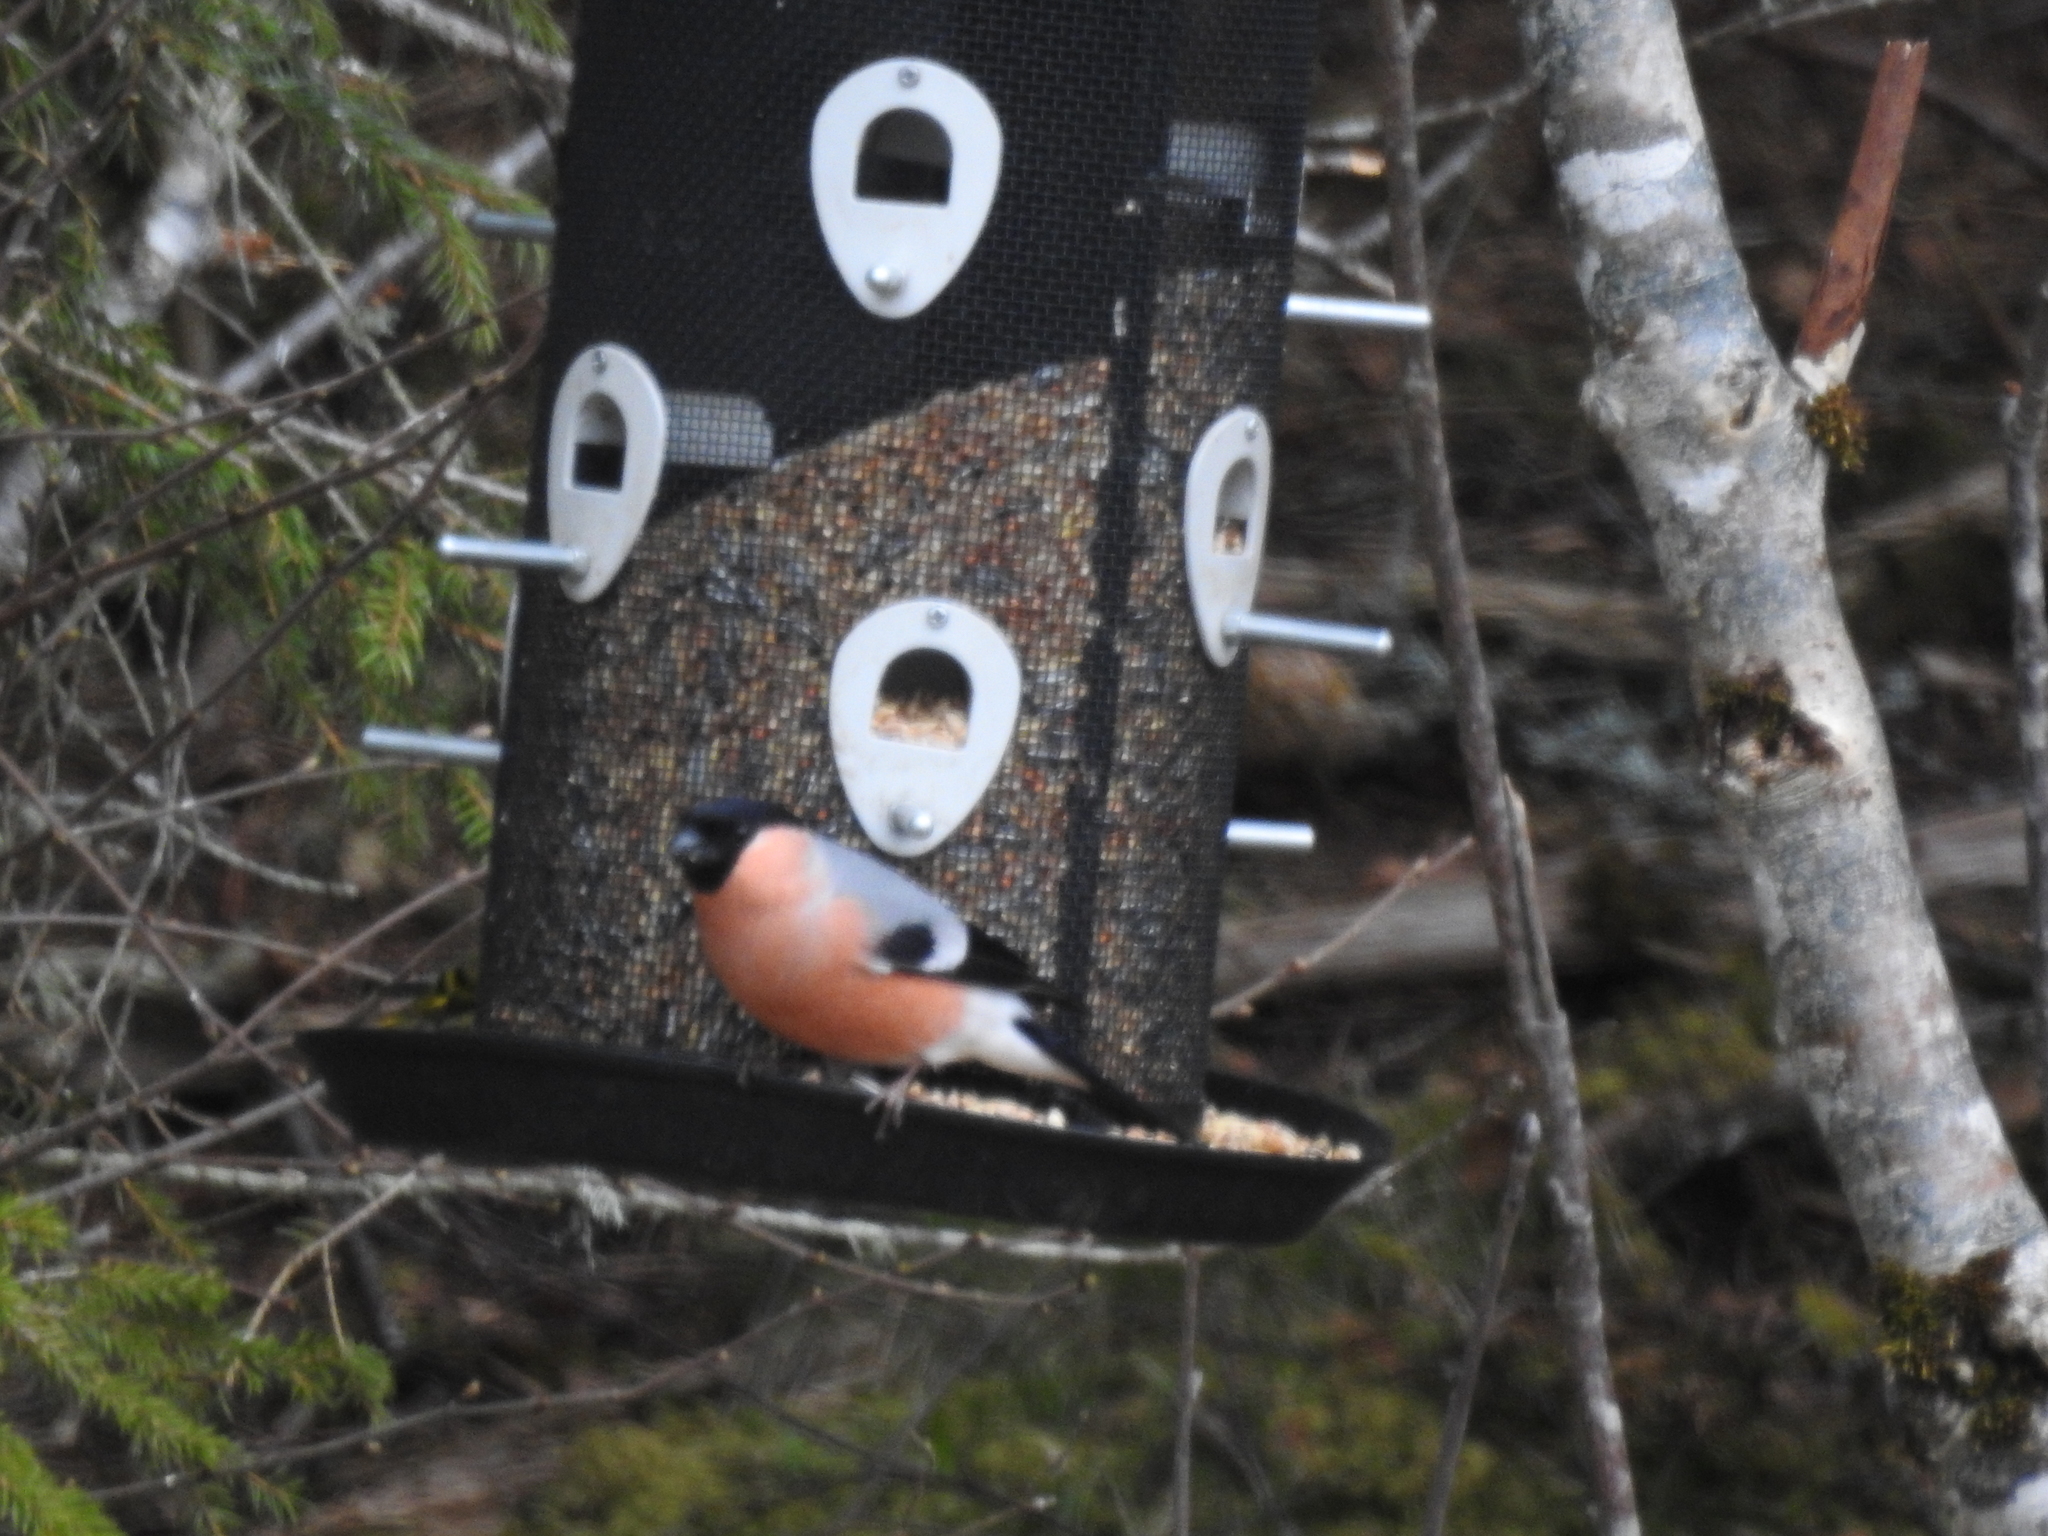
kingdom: Animalia
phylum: Chordata
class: Aves
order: Passeriformes
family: Fringillidae
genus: Pyrrhula
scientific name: Pyrrhula pyrrhula
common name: Eurasian bullfinch
